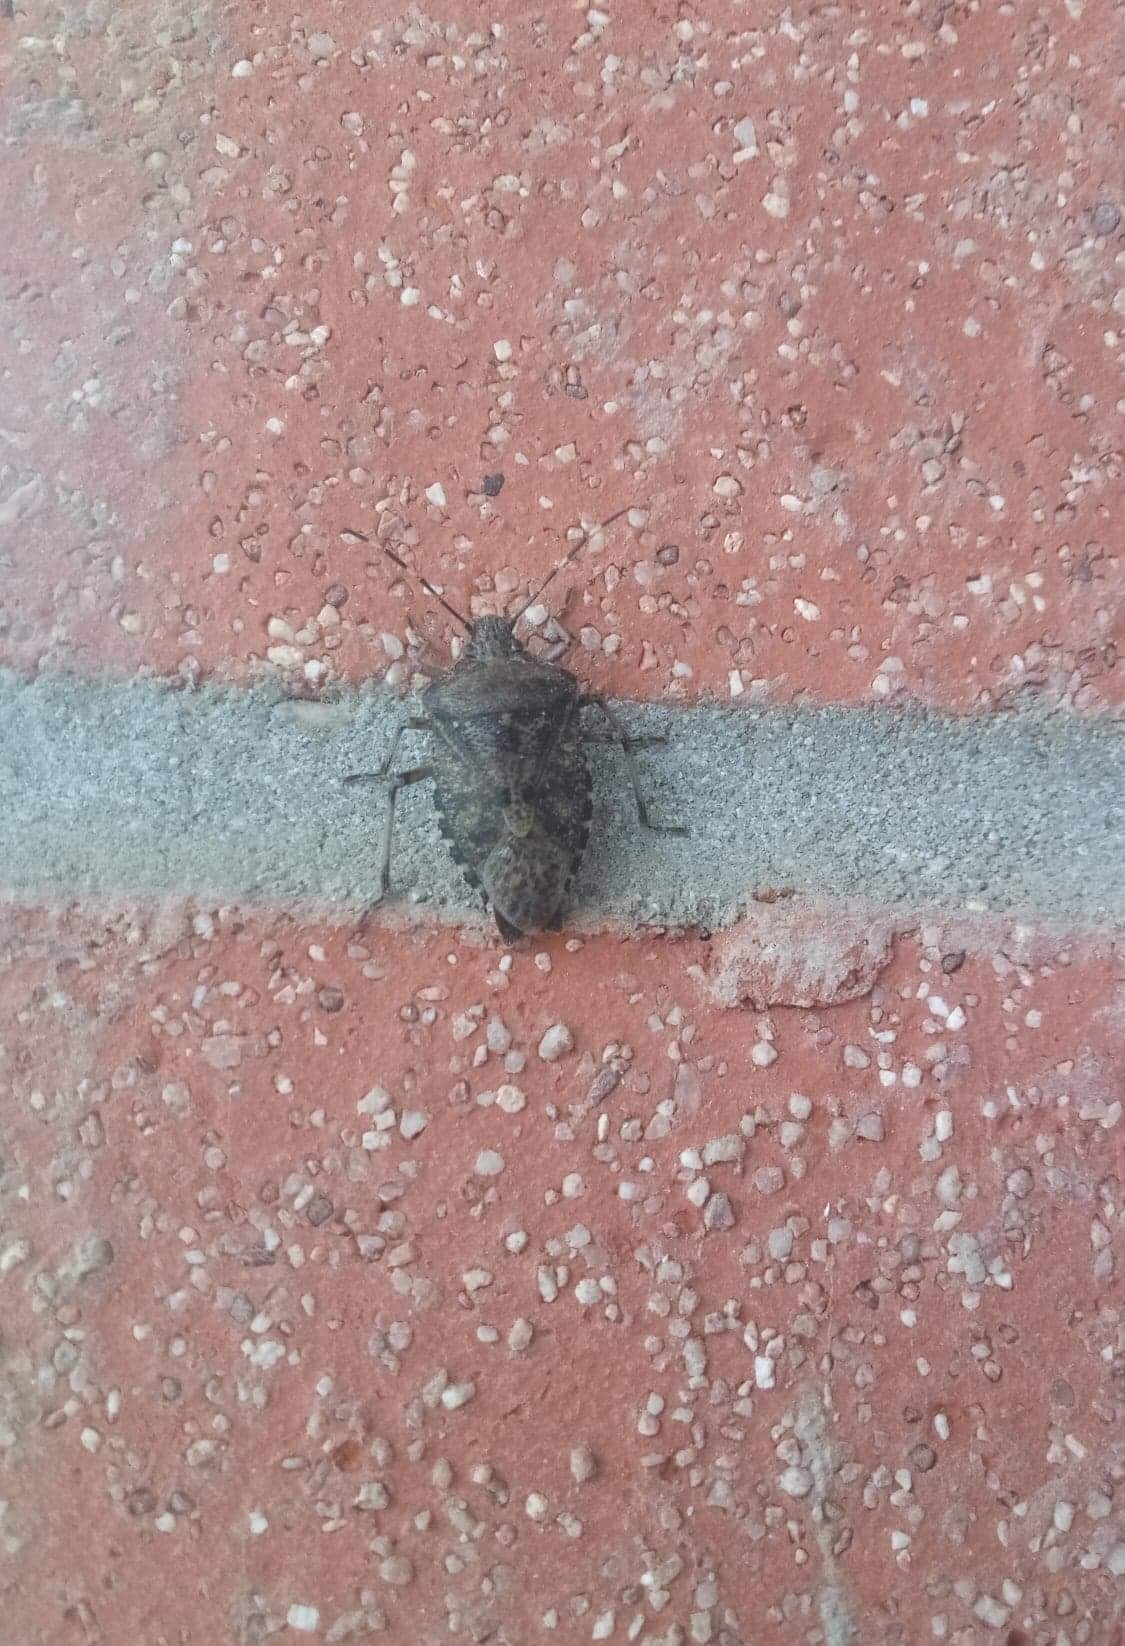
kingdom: Animalia
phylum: Arthropoda
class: Insecta
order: Hemiptera
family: Pentatomidae
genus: Rhaphigaster
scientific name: Rhaphigaster nebulosa
